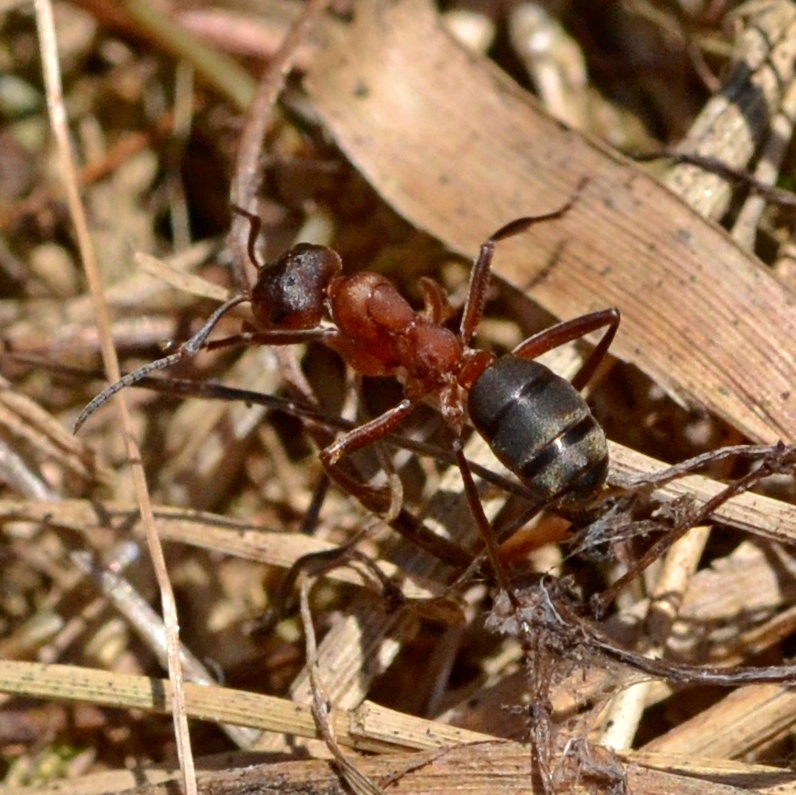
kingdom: Animalia
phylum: Arthropoda
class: Insecta
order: Hymenoptera
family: Formicidae
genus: Formica
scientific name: Formica sanguinea
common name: Blood-red ant
